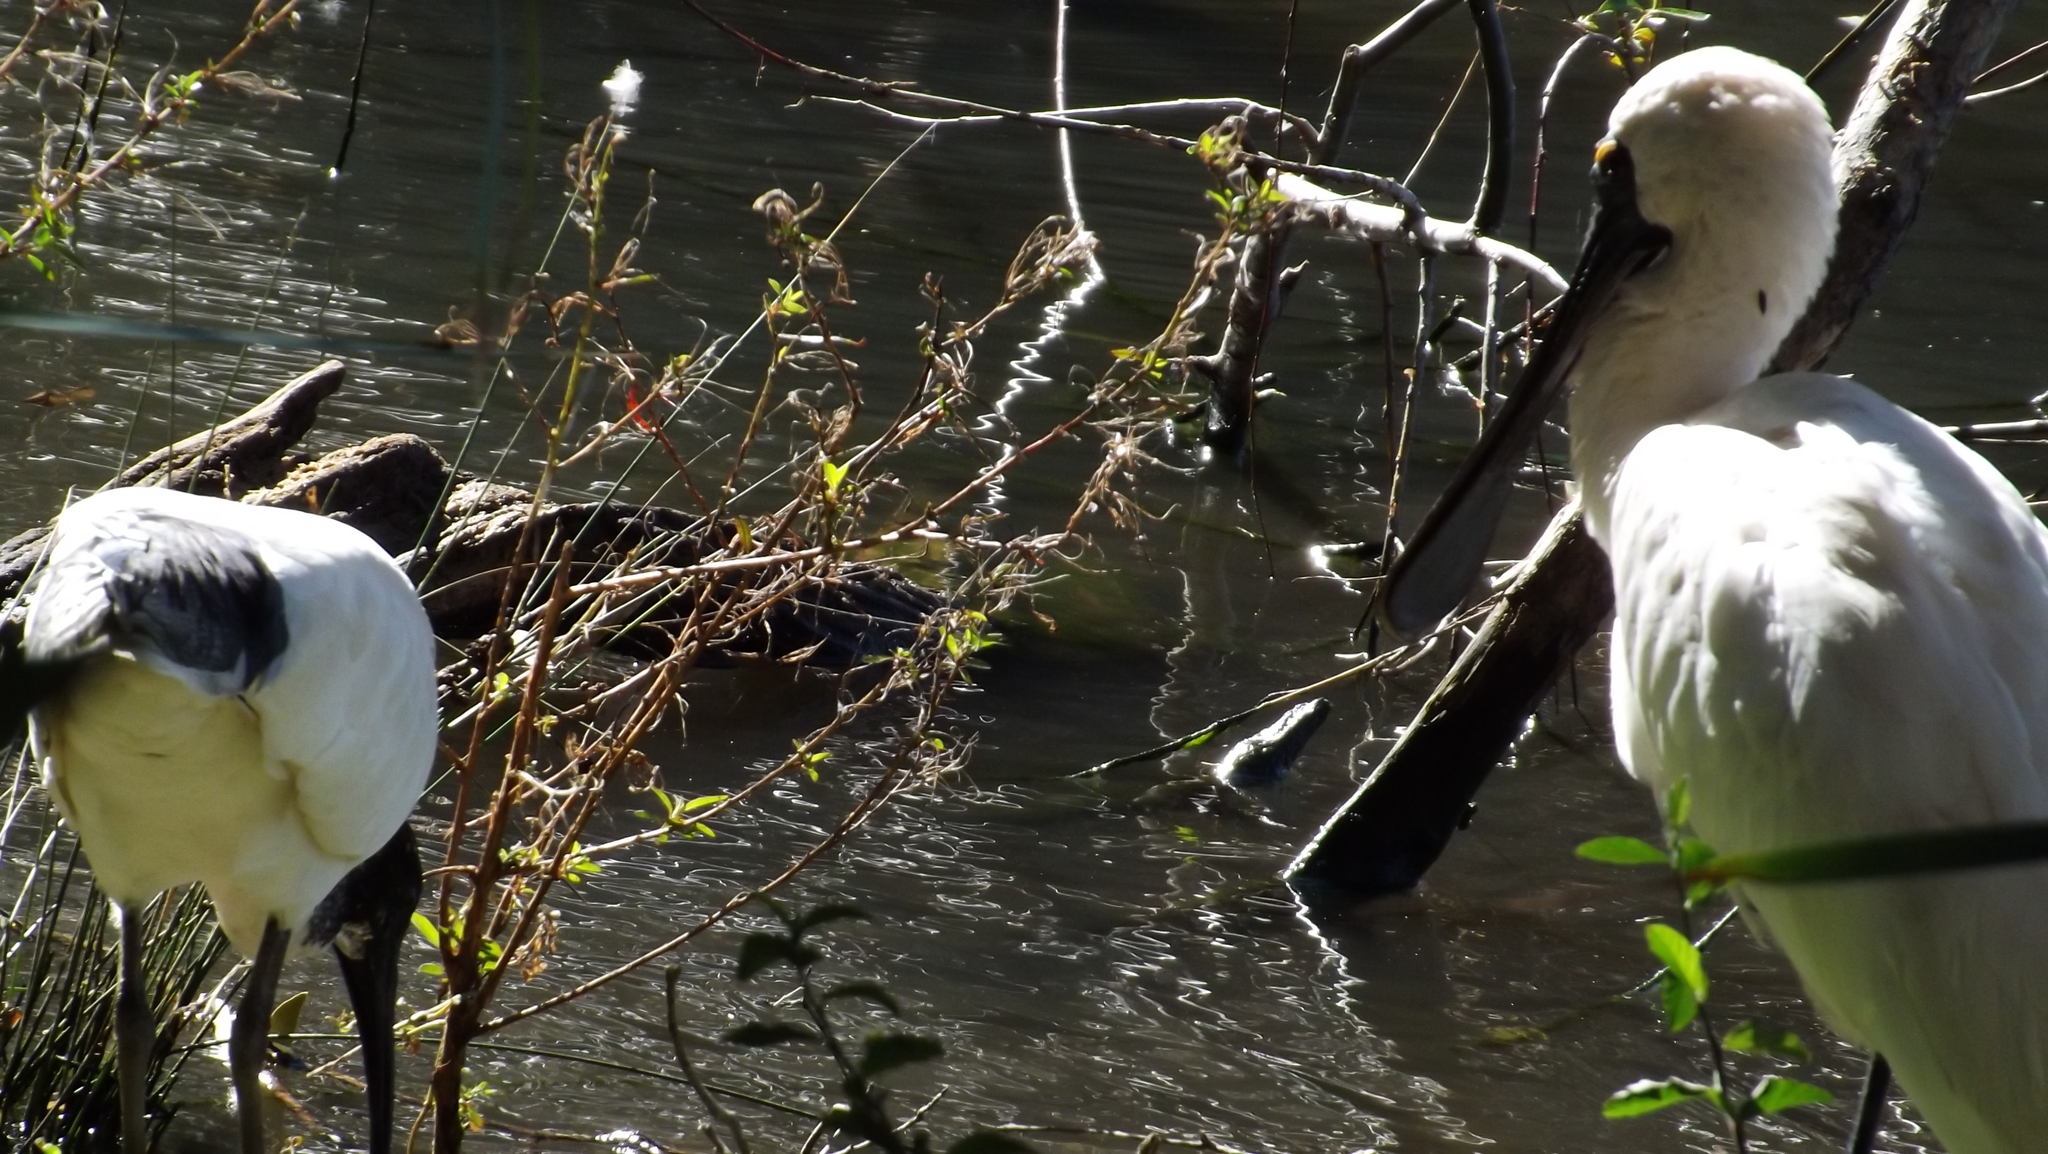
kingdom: Animalia
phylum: Chordata
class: Aves
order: Pelecaniformes
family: Threskiornithidae
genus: Platalea
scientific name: Platalea regia
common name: Royal spoonbill
